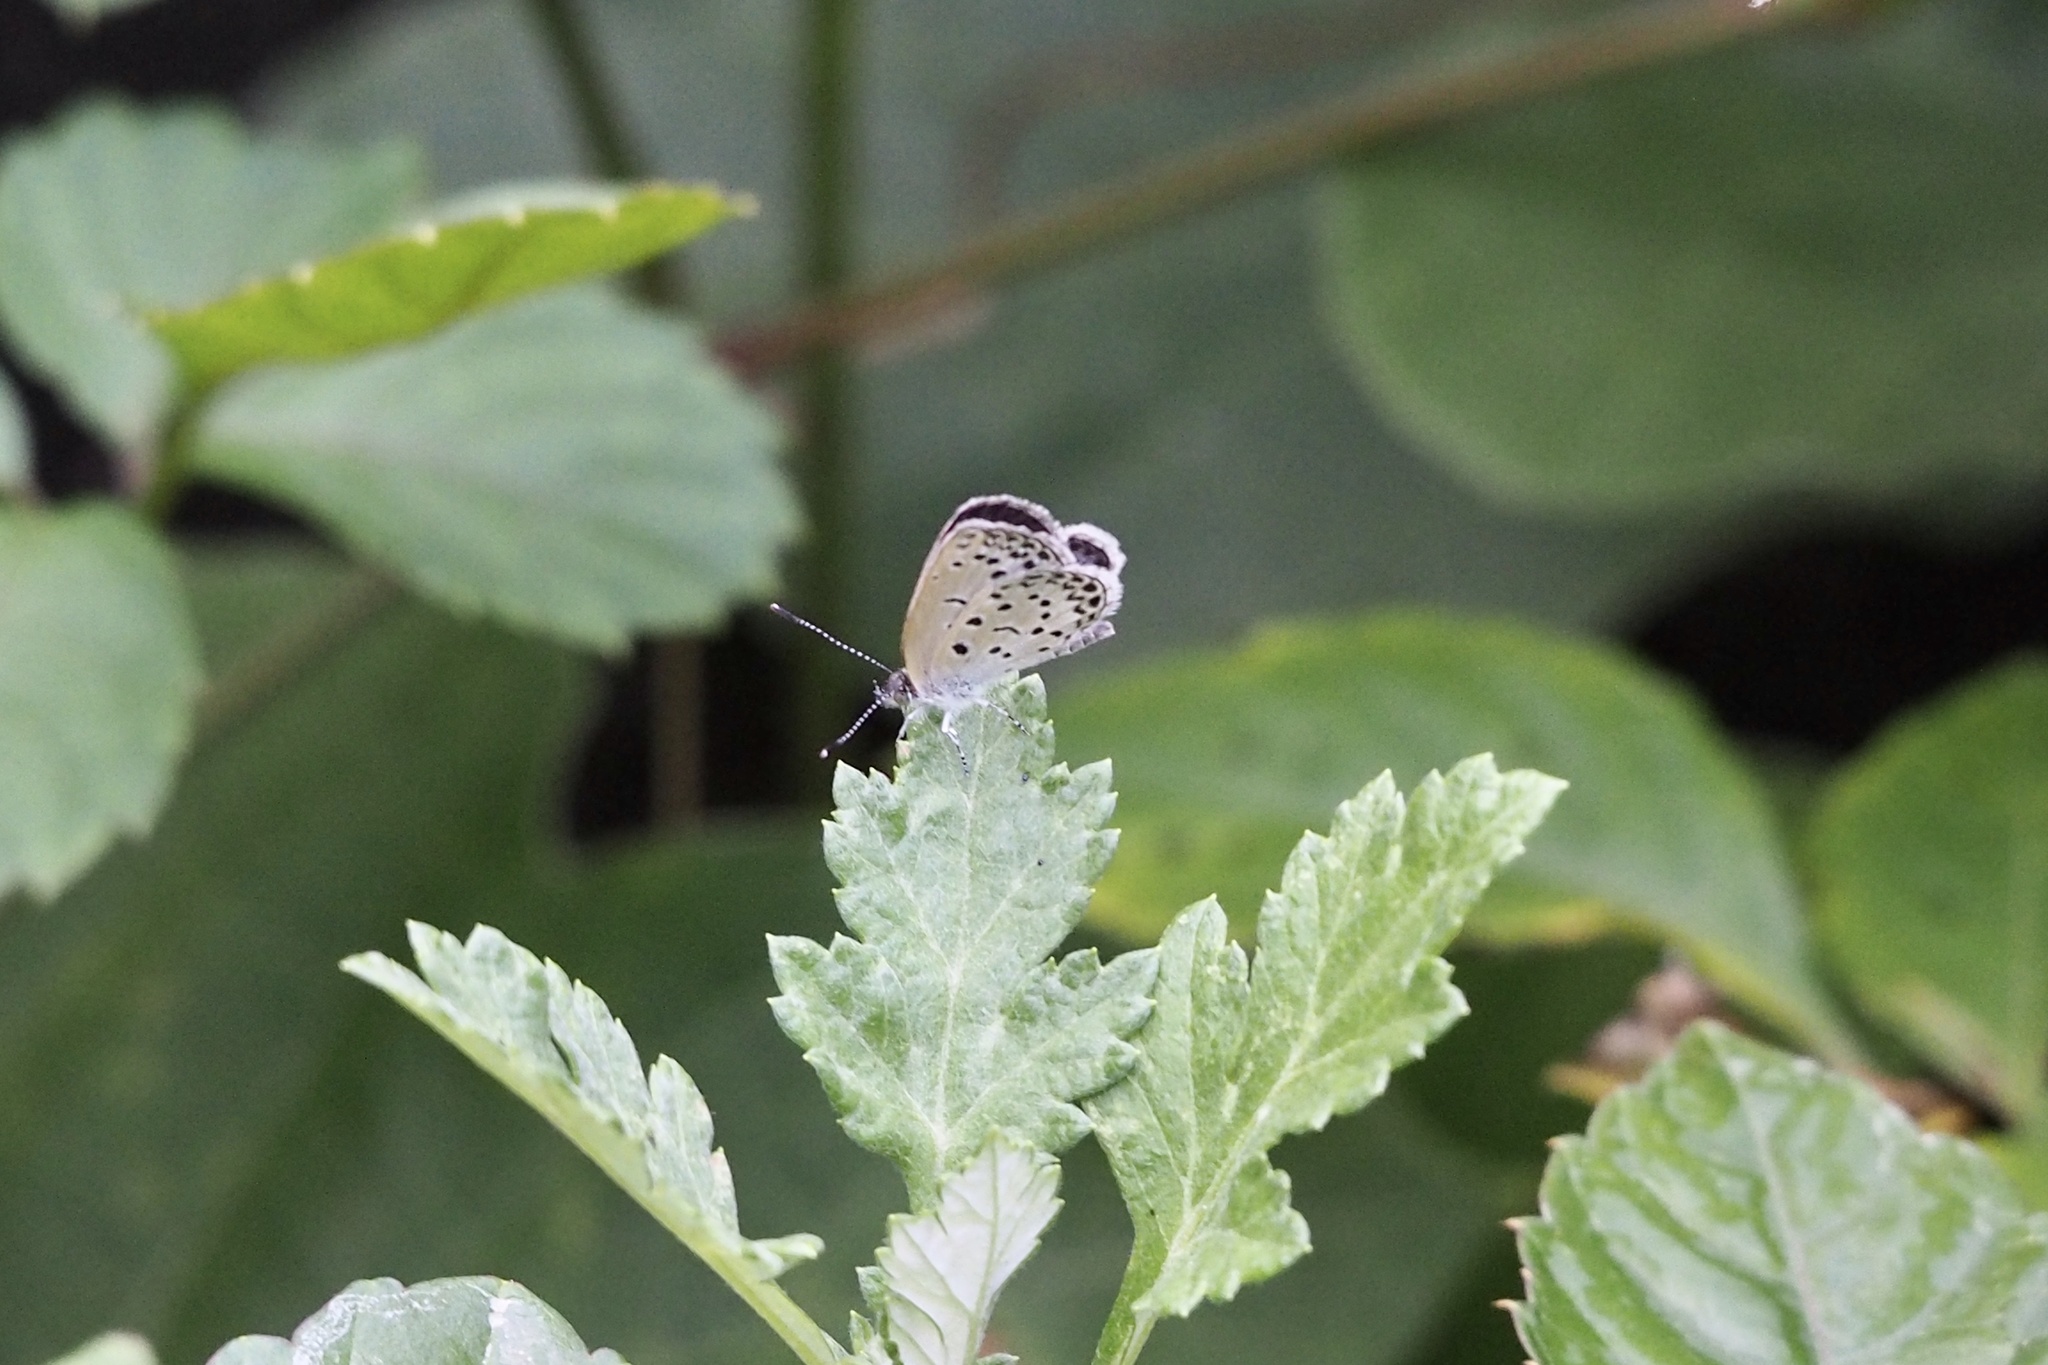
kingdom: Animalia
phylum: Arthropoda
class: Insecta
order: Lepidoptera
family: Lycaenidae
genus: Pseudozizeeria
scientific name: Pseudozizeeria maha
